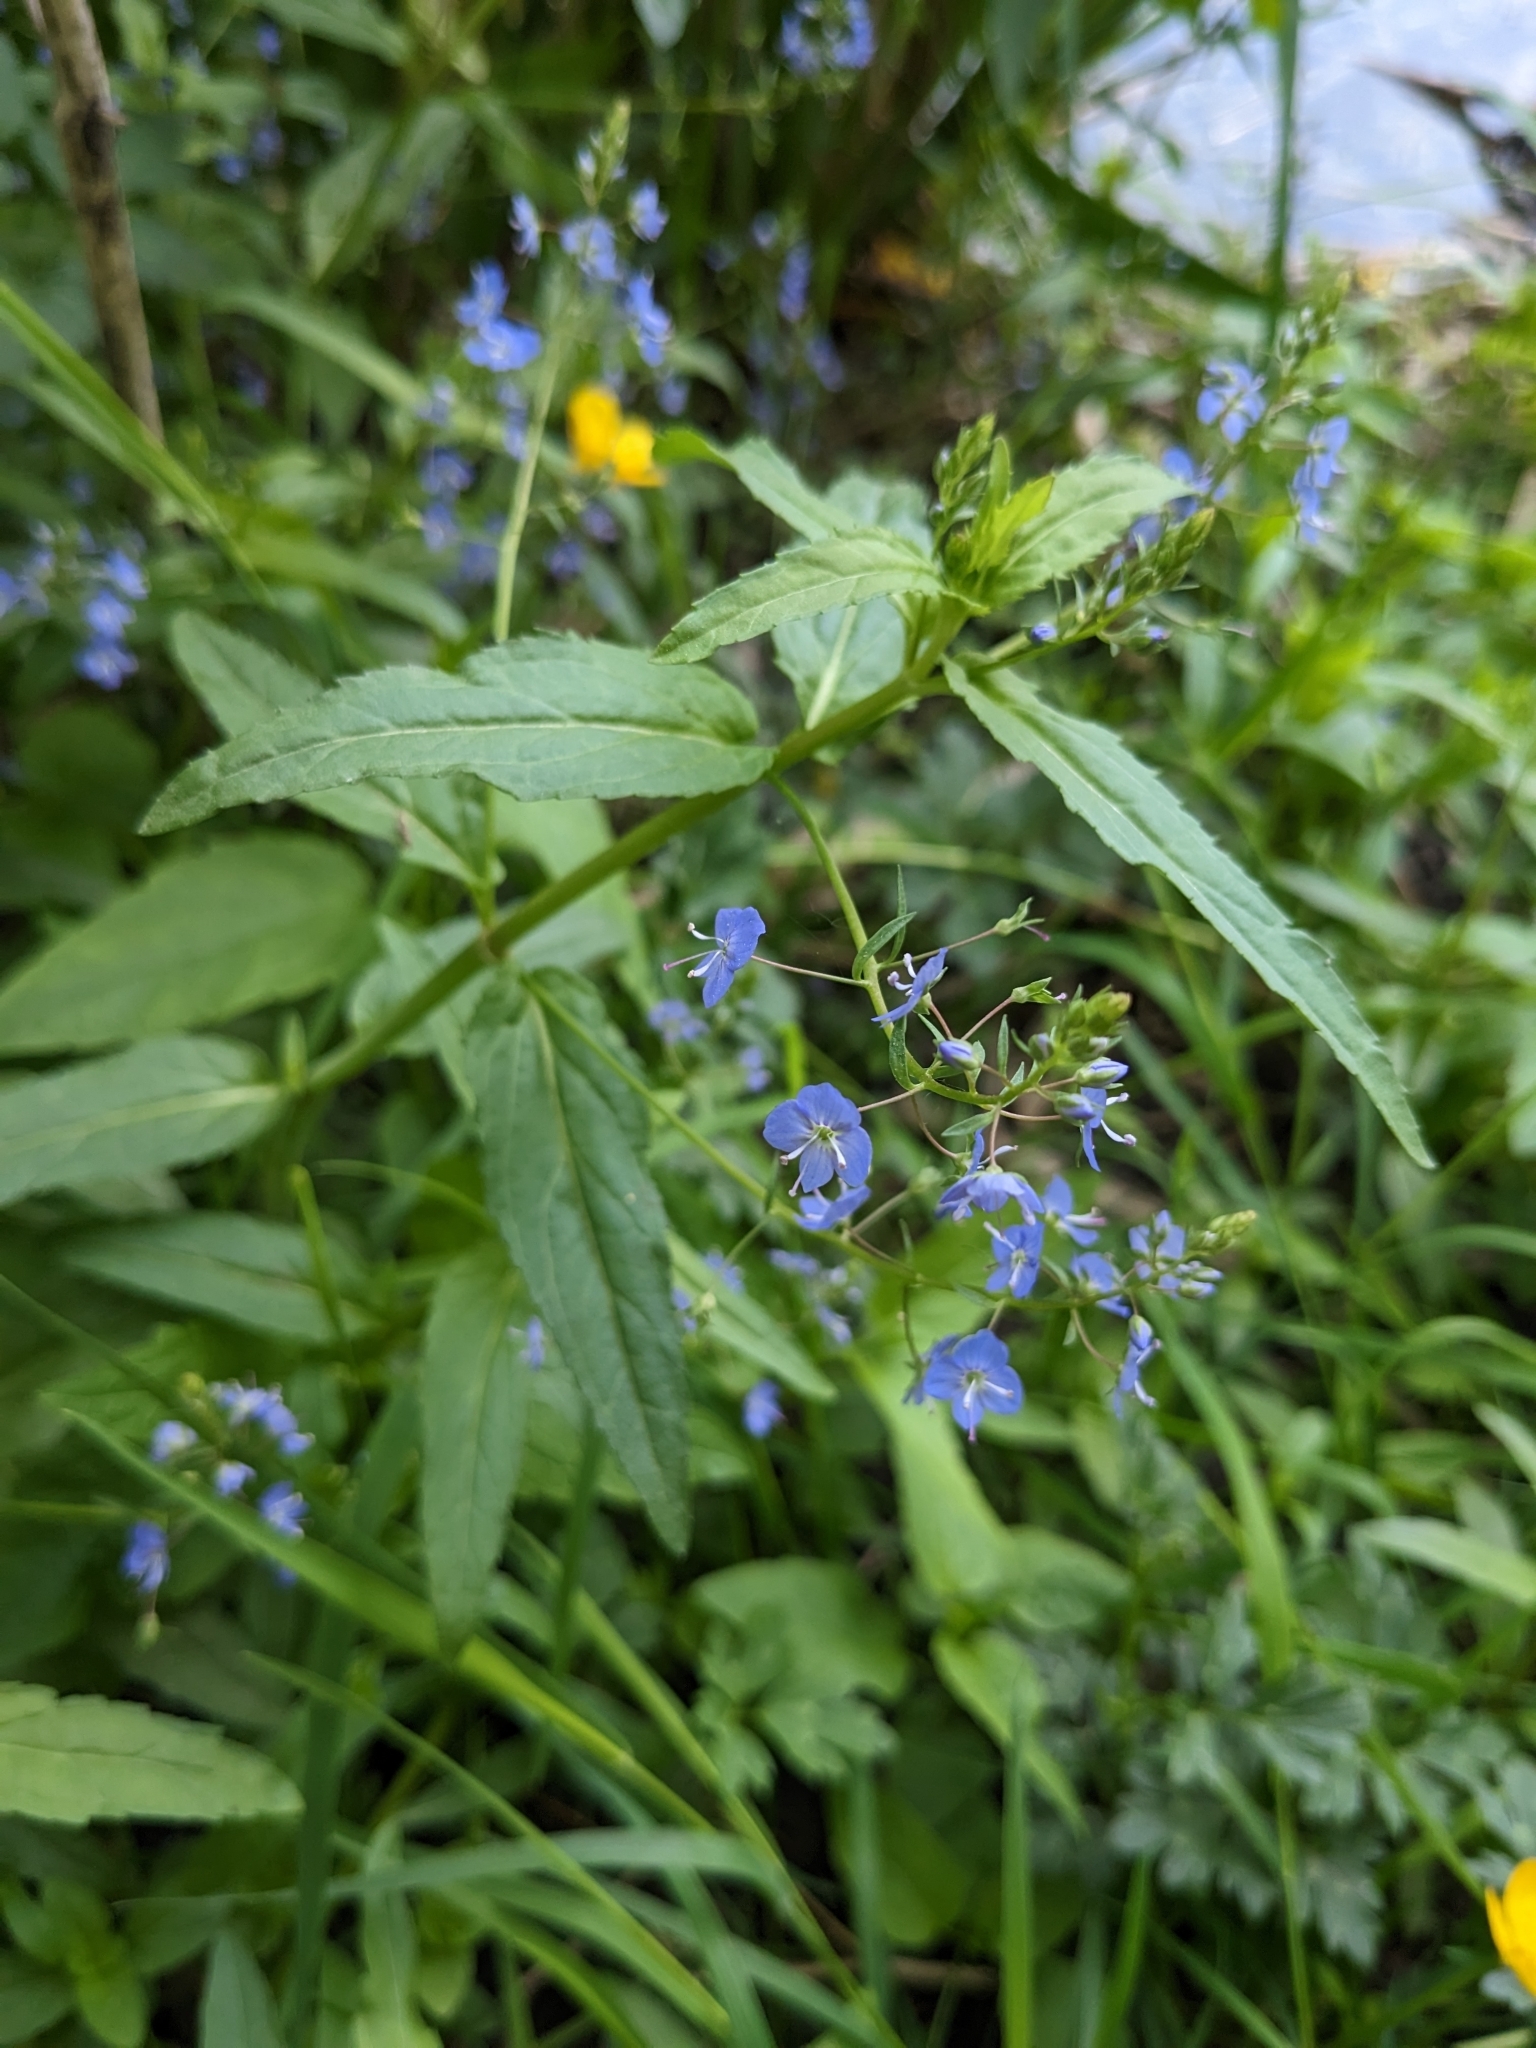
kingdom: Plantae
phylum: Tracheophyta
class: Magnoliopsida
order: Lamiales
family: Plantaginaceae
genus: Veronica
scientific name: Veronica americana
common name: American brooklime
